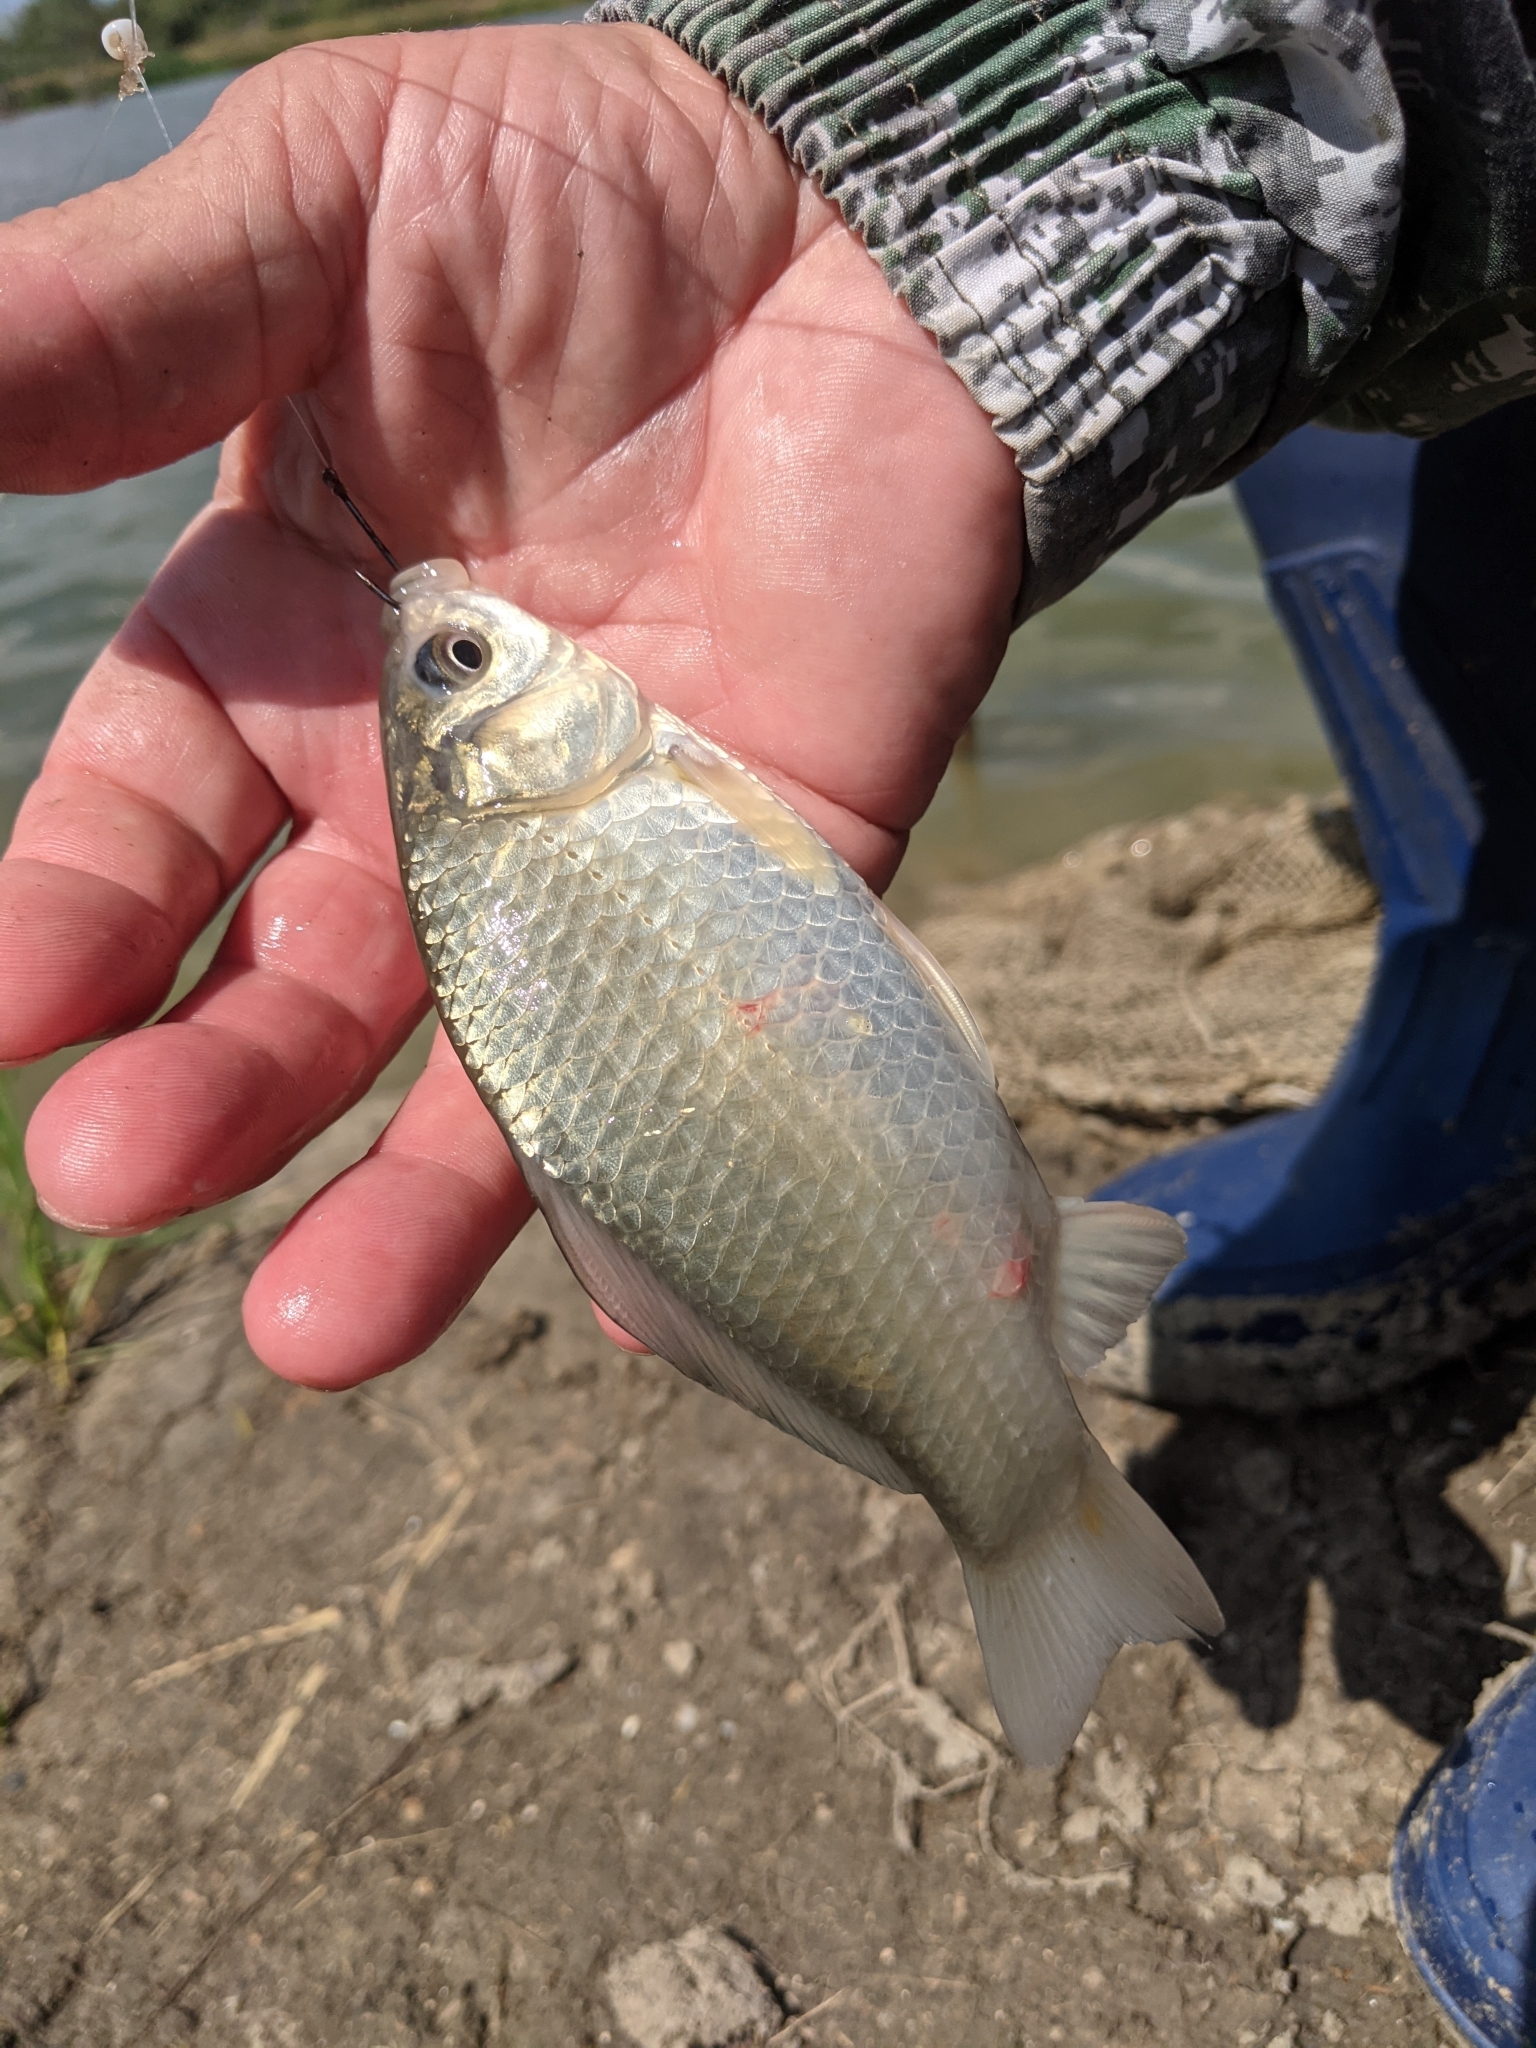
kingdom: Animalia
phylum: Chordata
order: Cypriniformes
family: Cyprinidae
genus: Carassius
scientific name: Carassius gibelio
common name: Prussian carp
